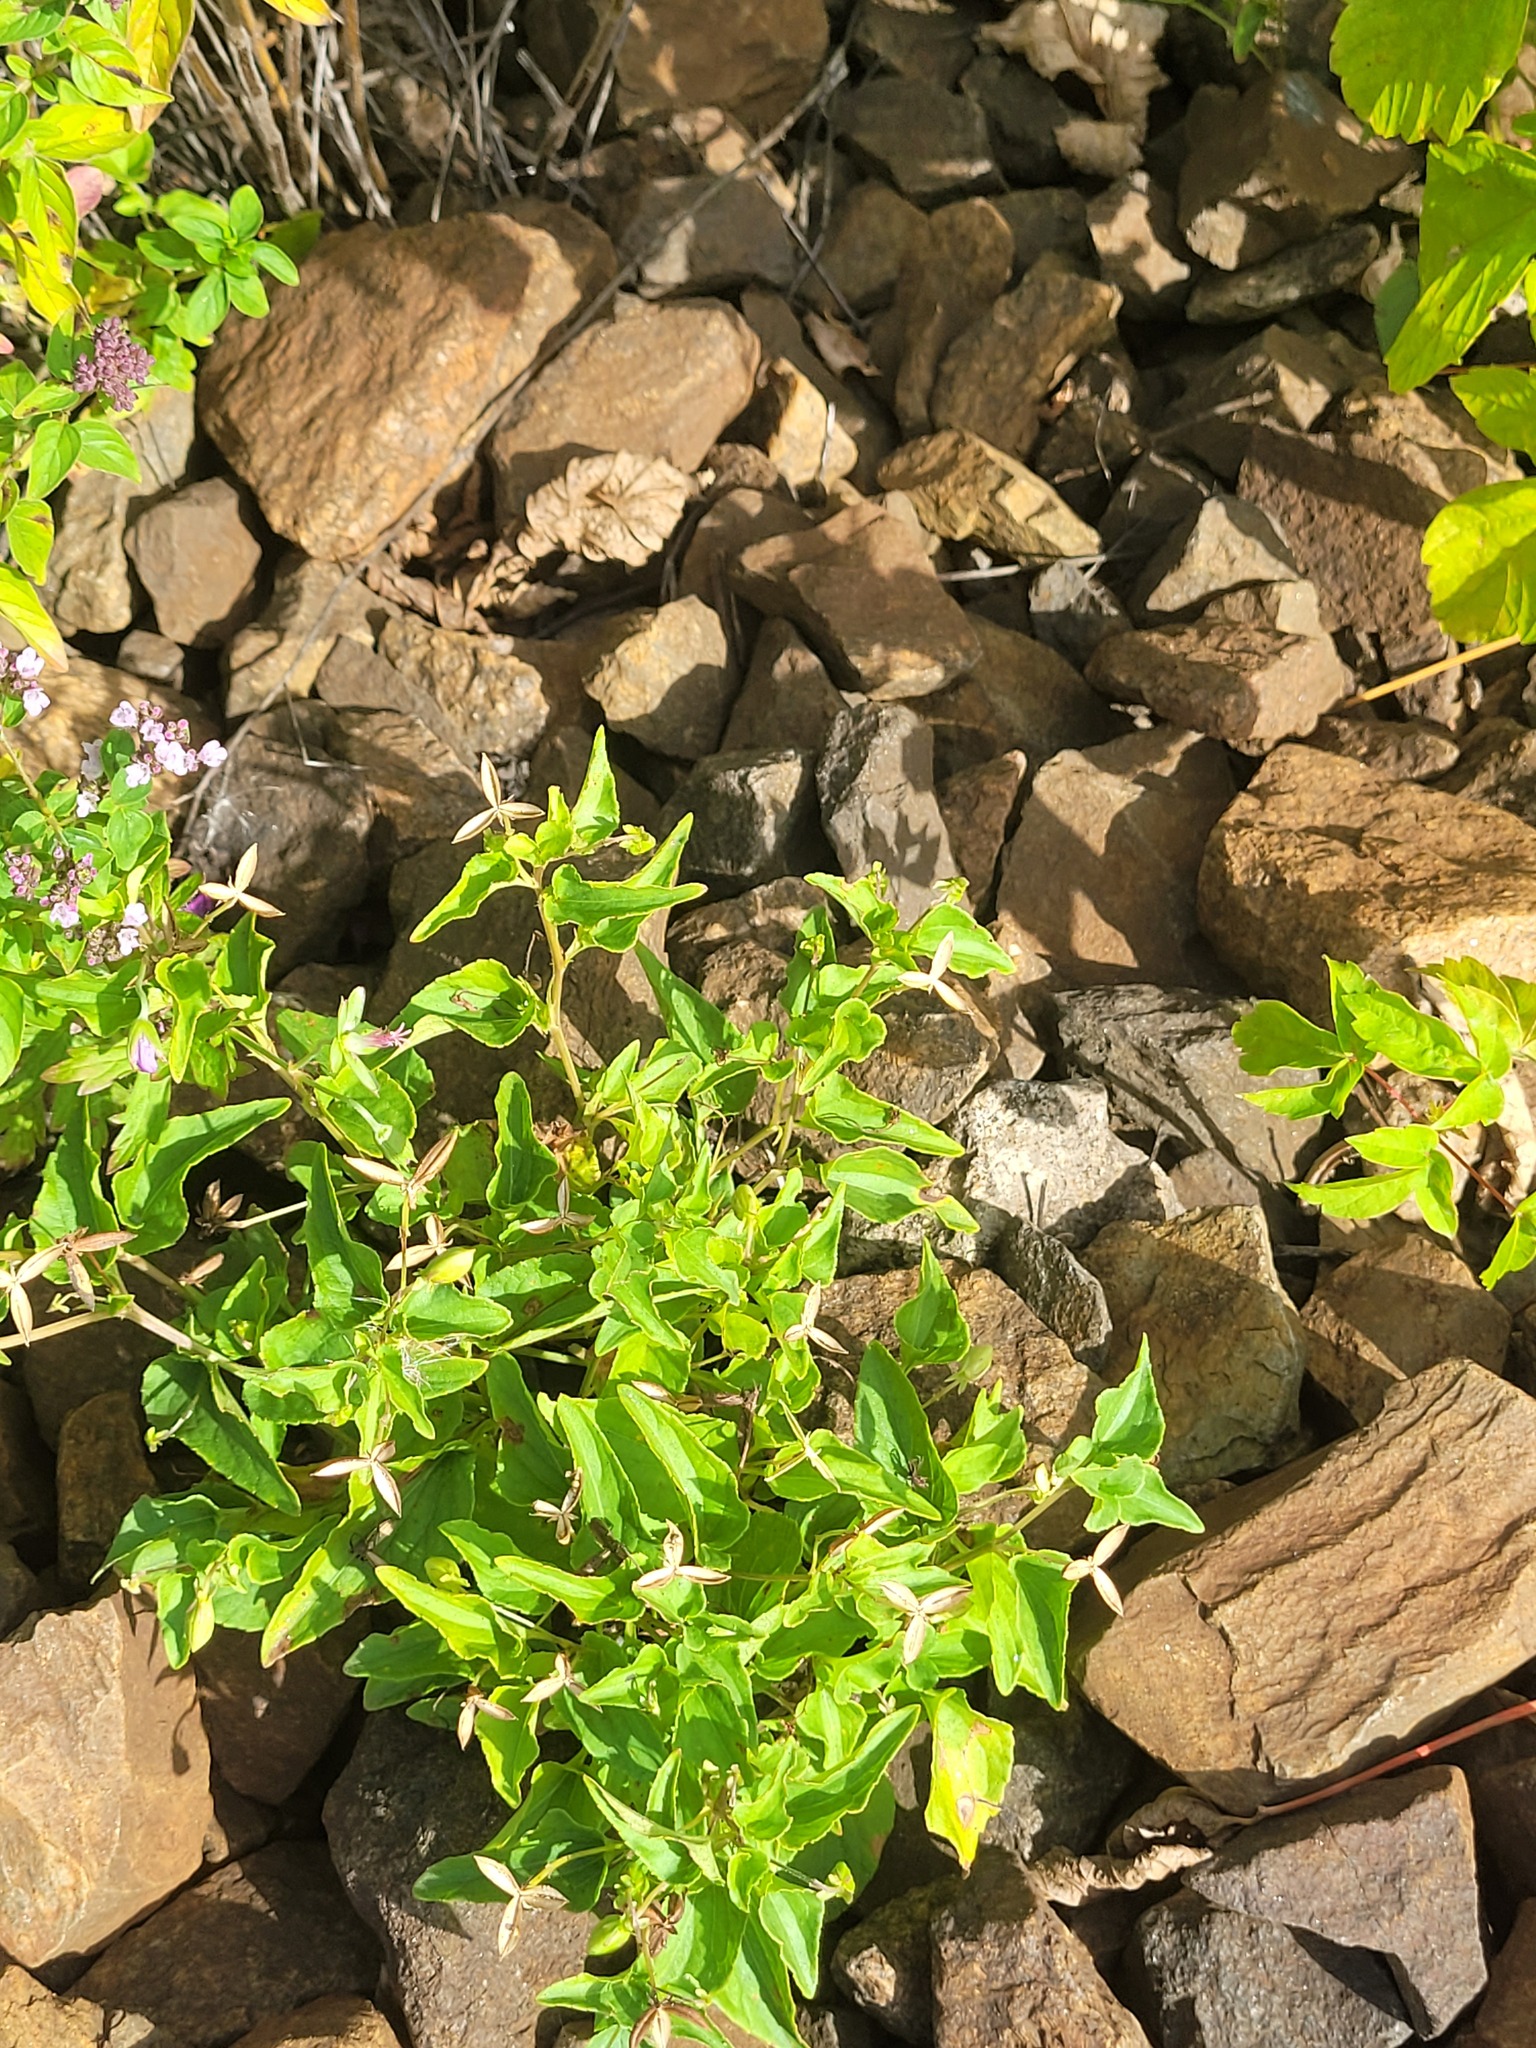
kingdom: Plantae
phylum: Tracheophyta
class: Magnoliopsida
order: Malpighiales
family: Violaceae
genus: Viola
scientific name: Viola canina
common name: Heath dog-violet
